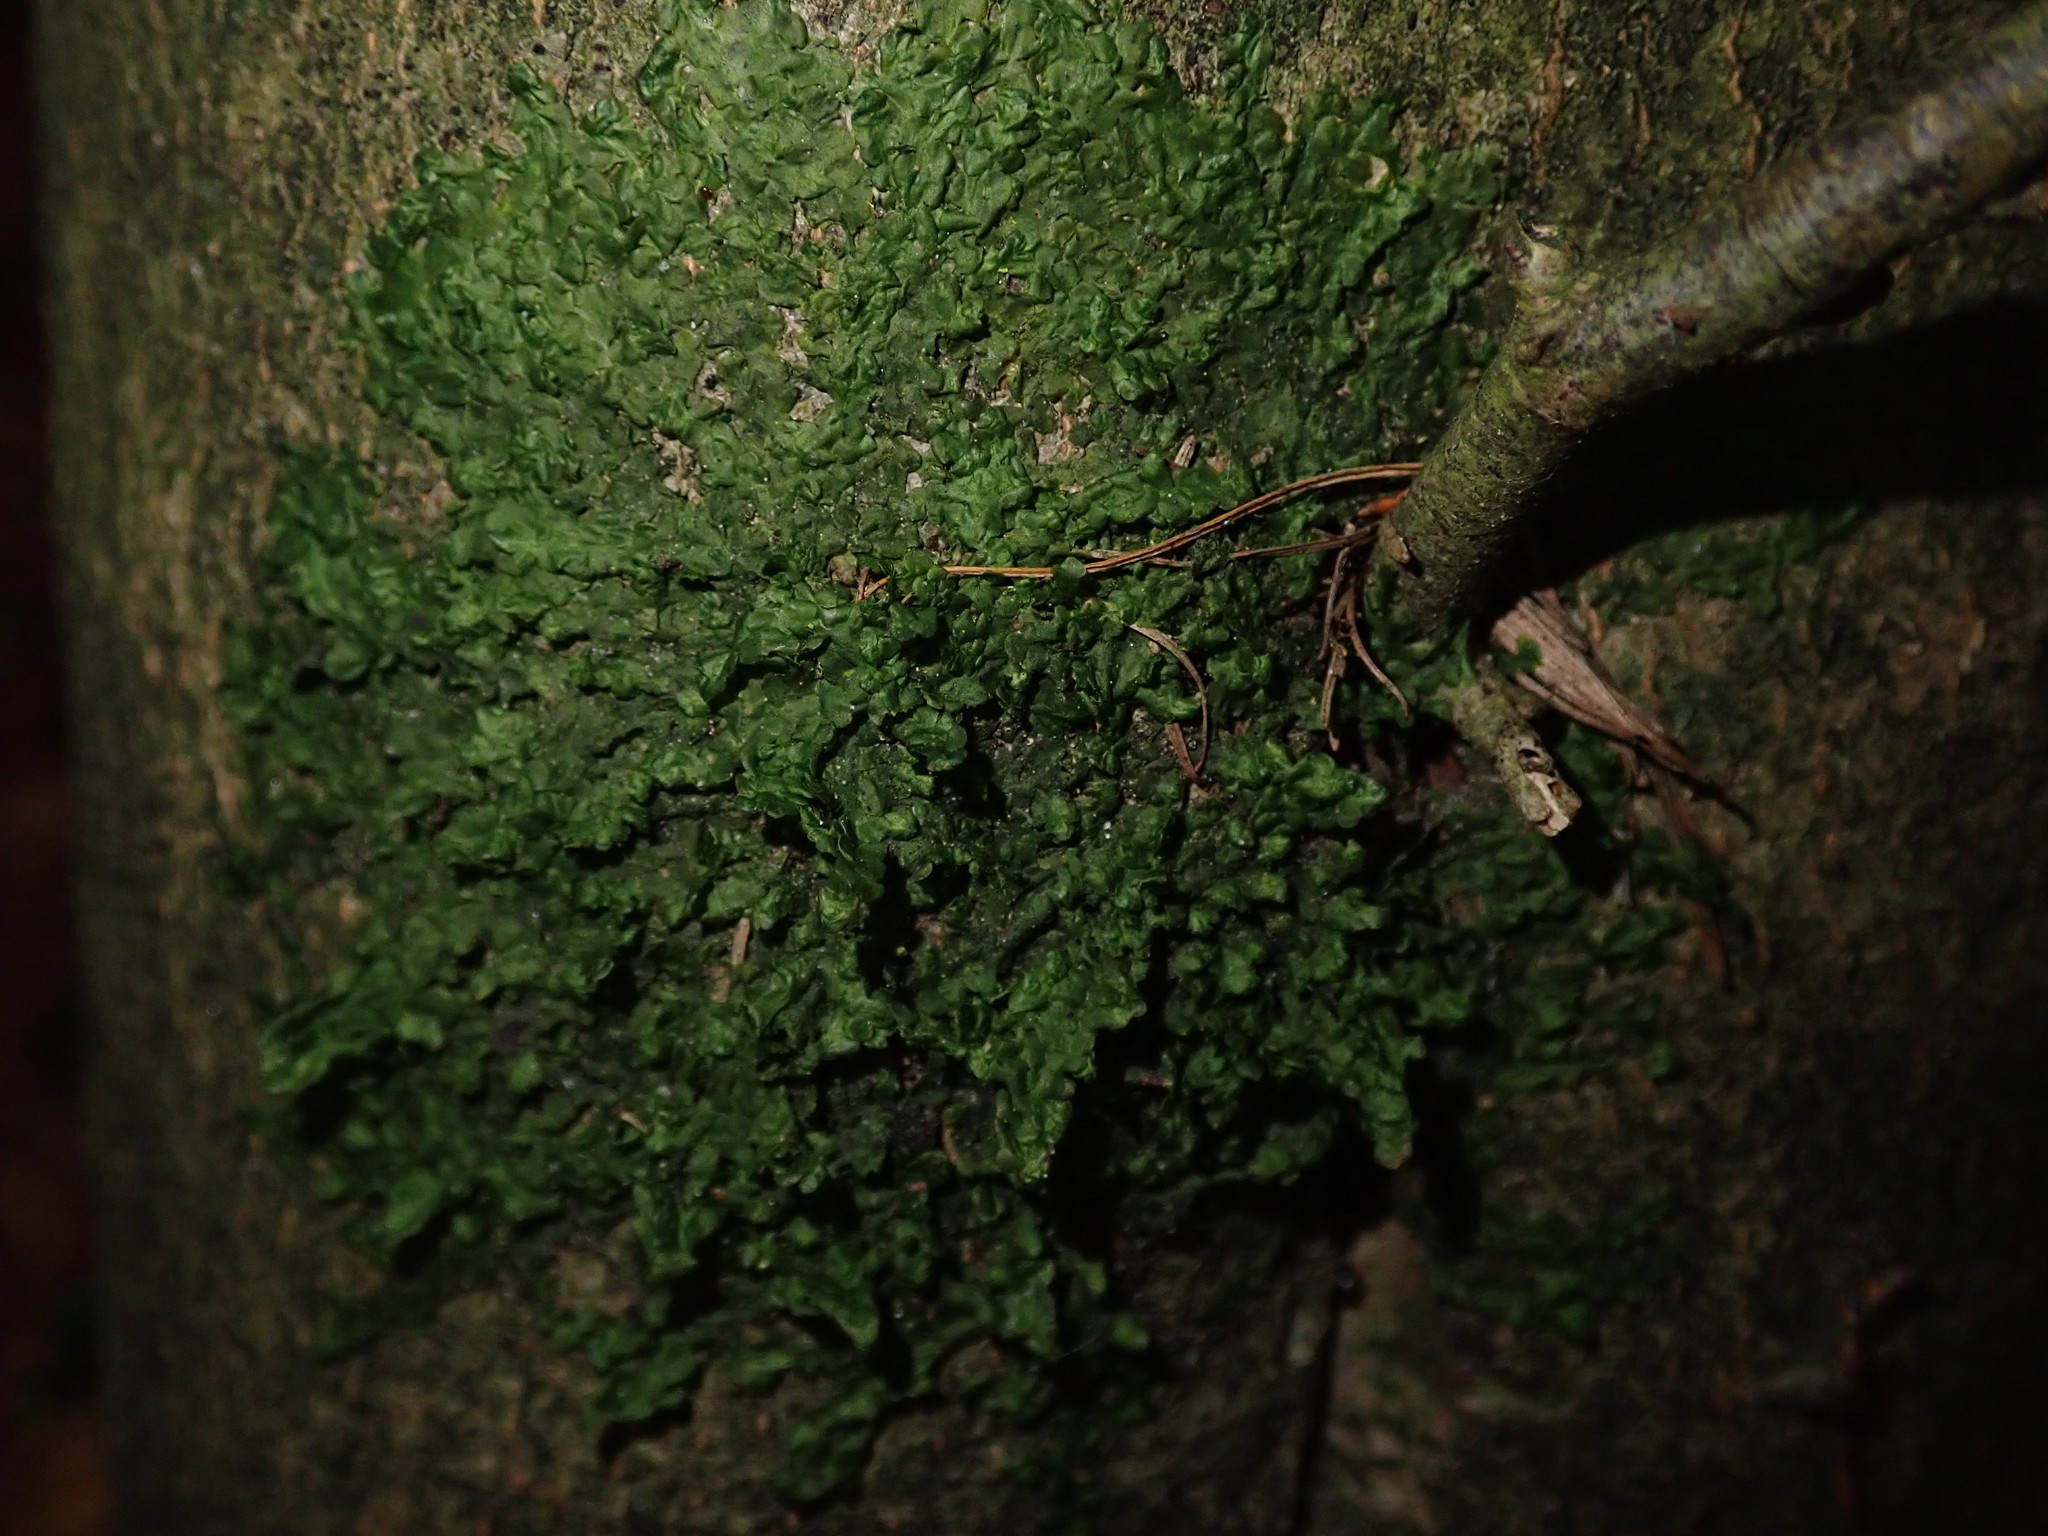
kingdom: Plantae
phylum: Marchantiophyta
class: Jungermanniopsida
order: Porellales
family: Radulaceae
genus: Radula
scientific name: Radula complanata
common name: Flat-leaved scalewort
